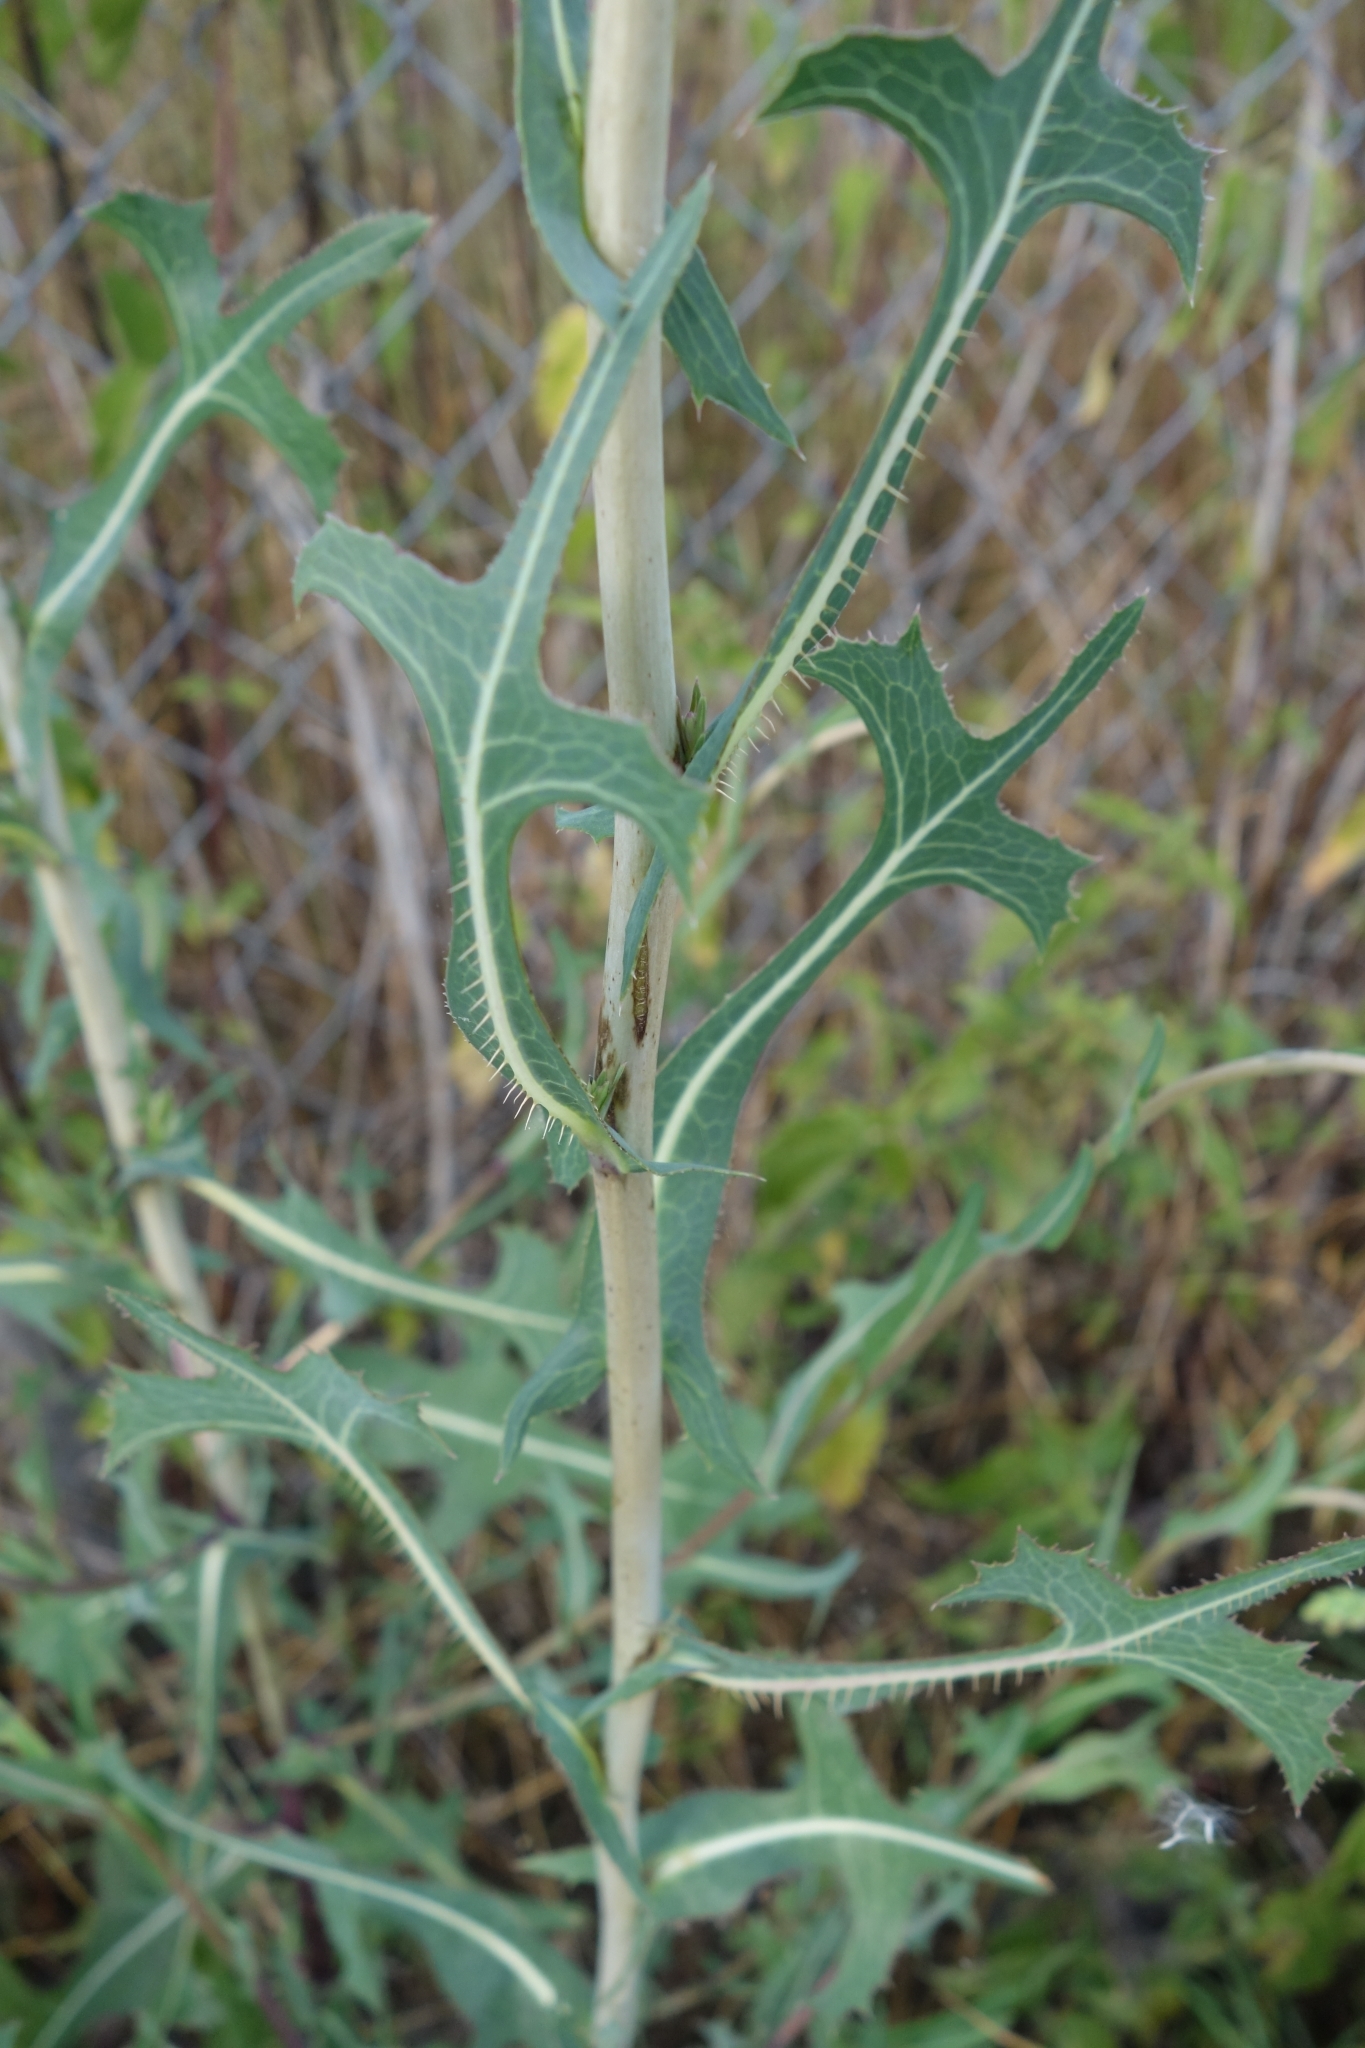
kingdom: Plantae
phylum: Tracheophyta
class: Magnoliopsida
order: Asterales
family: Asteraceae
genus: Lactuca
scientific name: Lactuca serriola
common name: Prickly lettuce
